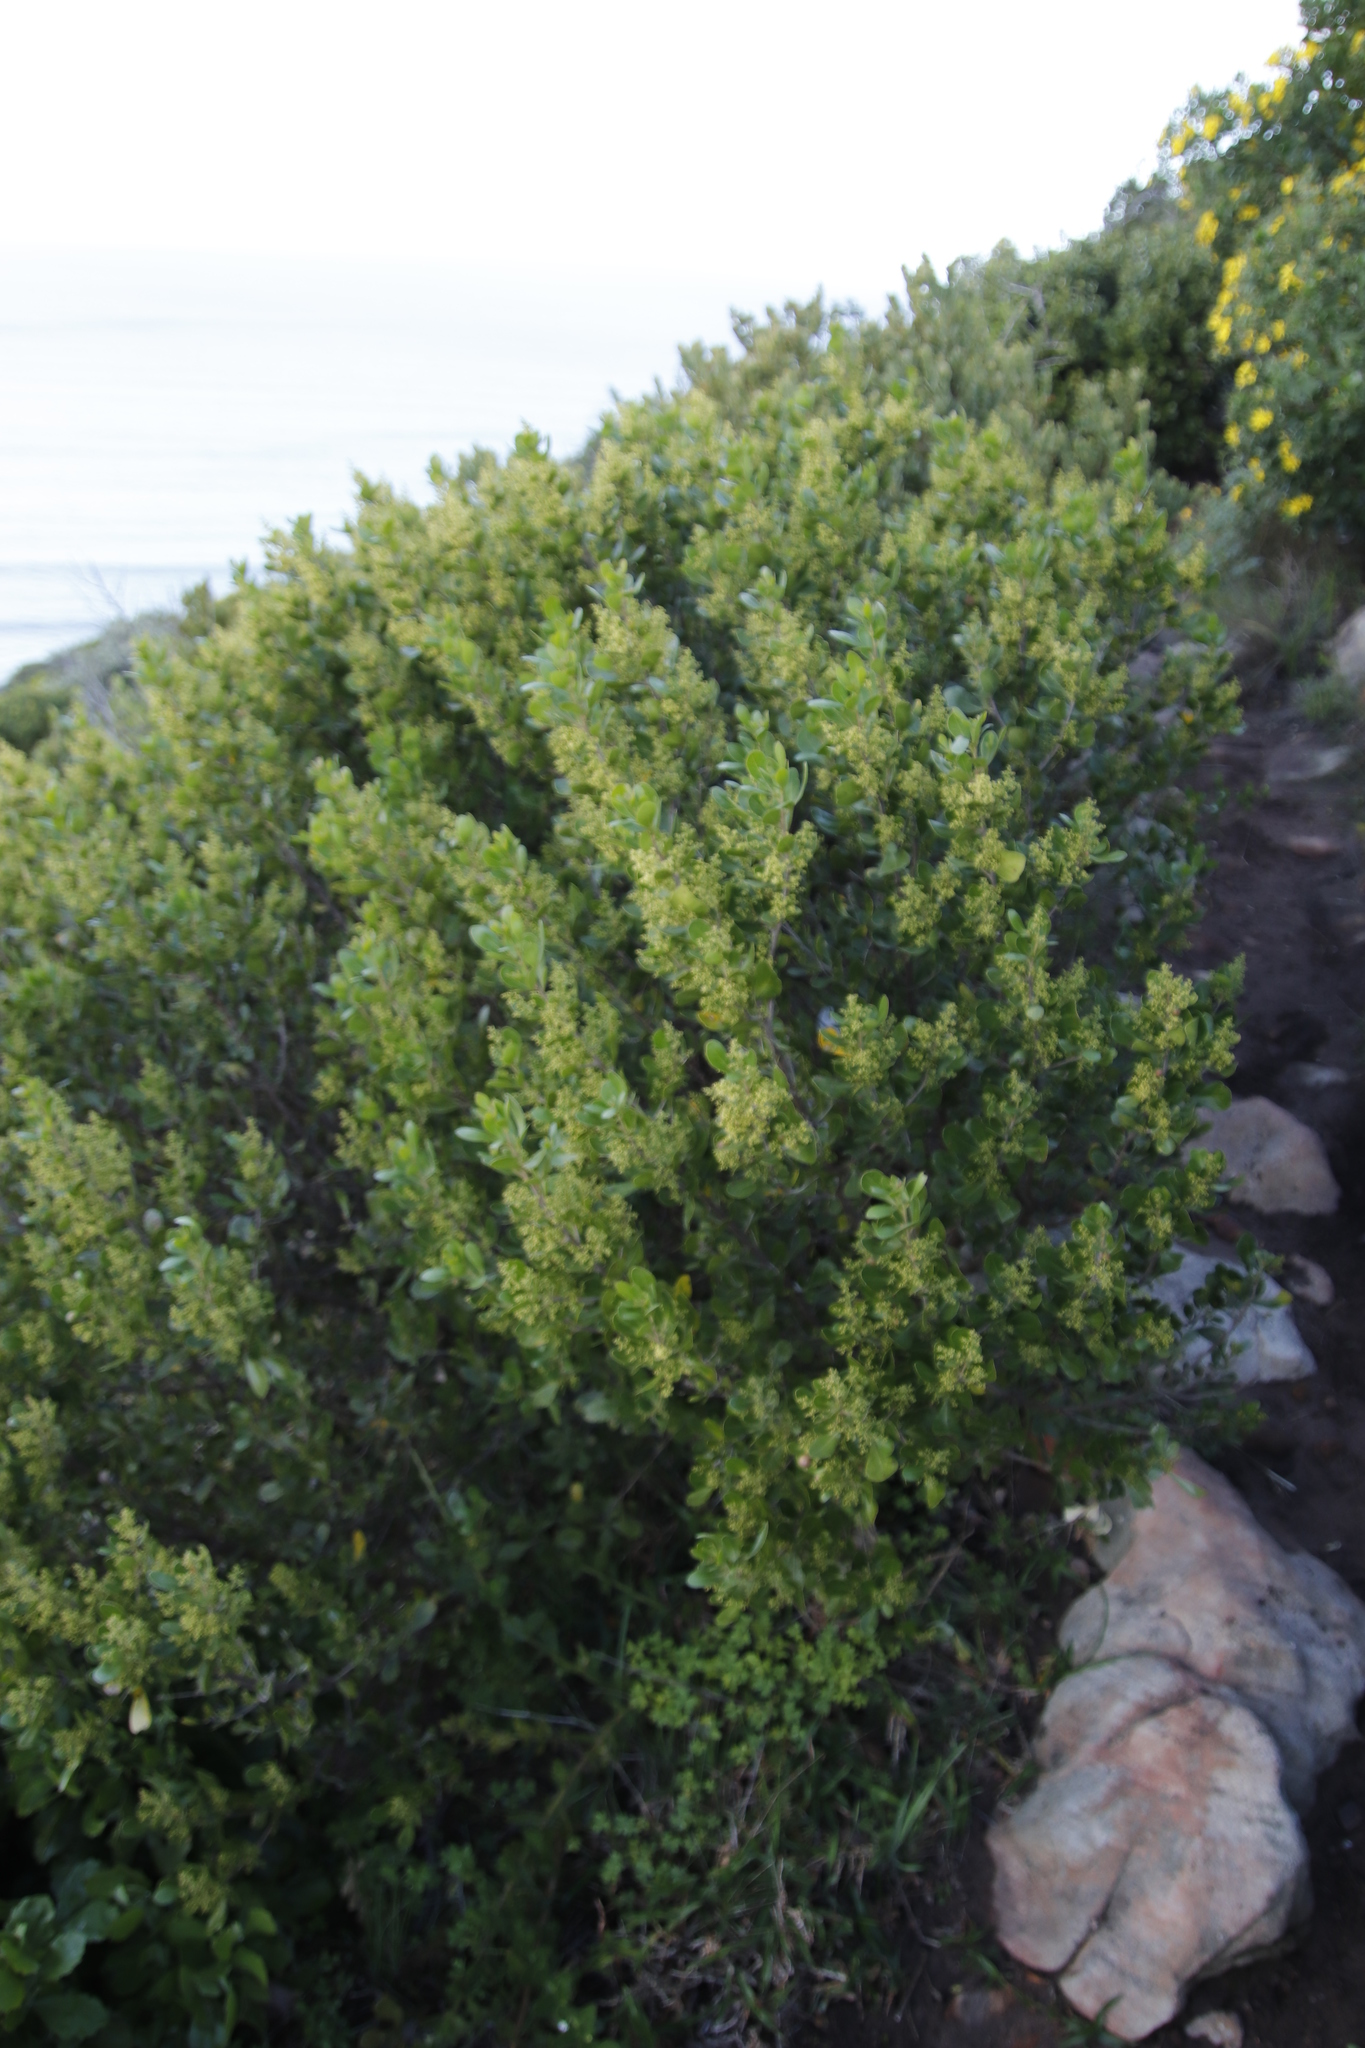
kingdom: Plantae
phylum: Tracheophyta
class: Magnoliopsida
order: Sapindales
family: Anacardiaceae
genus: Searsia
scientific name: Searsia lucida
